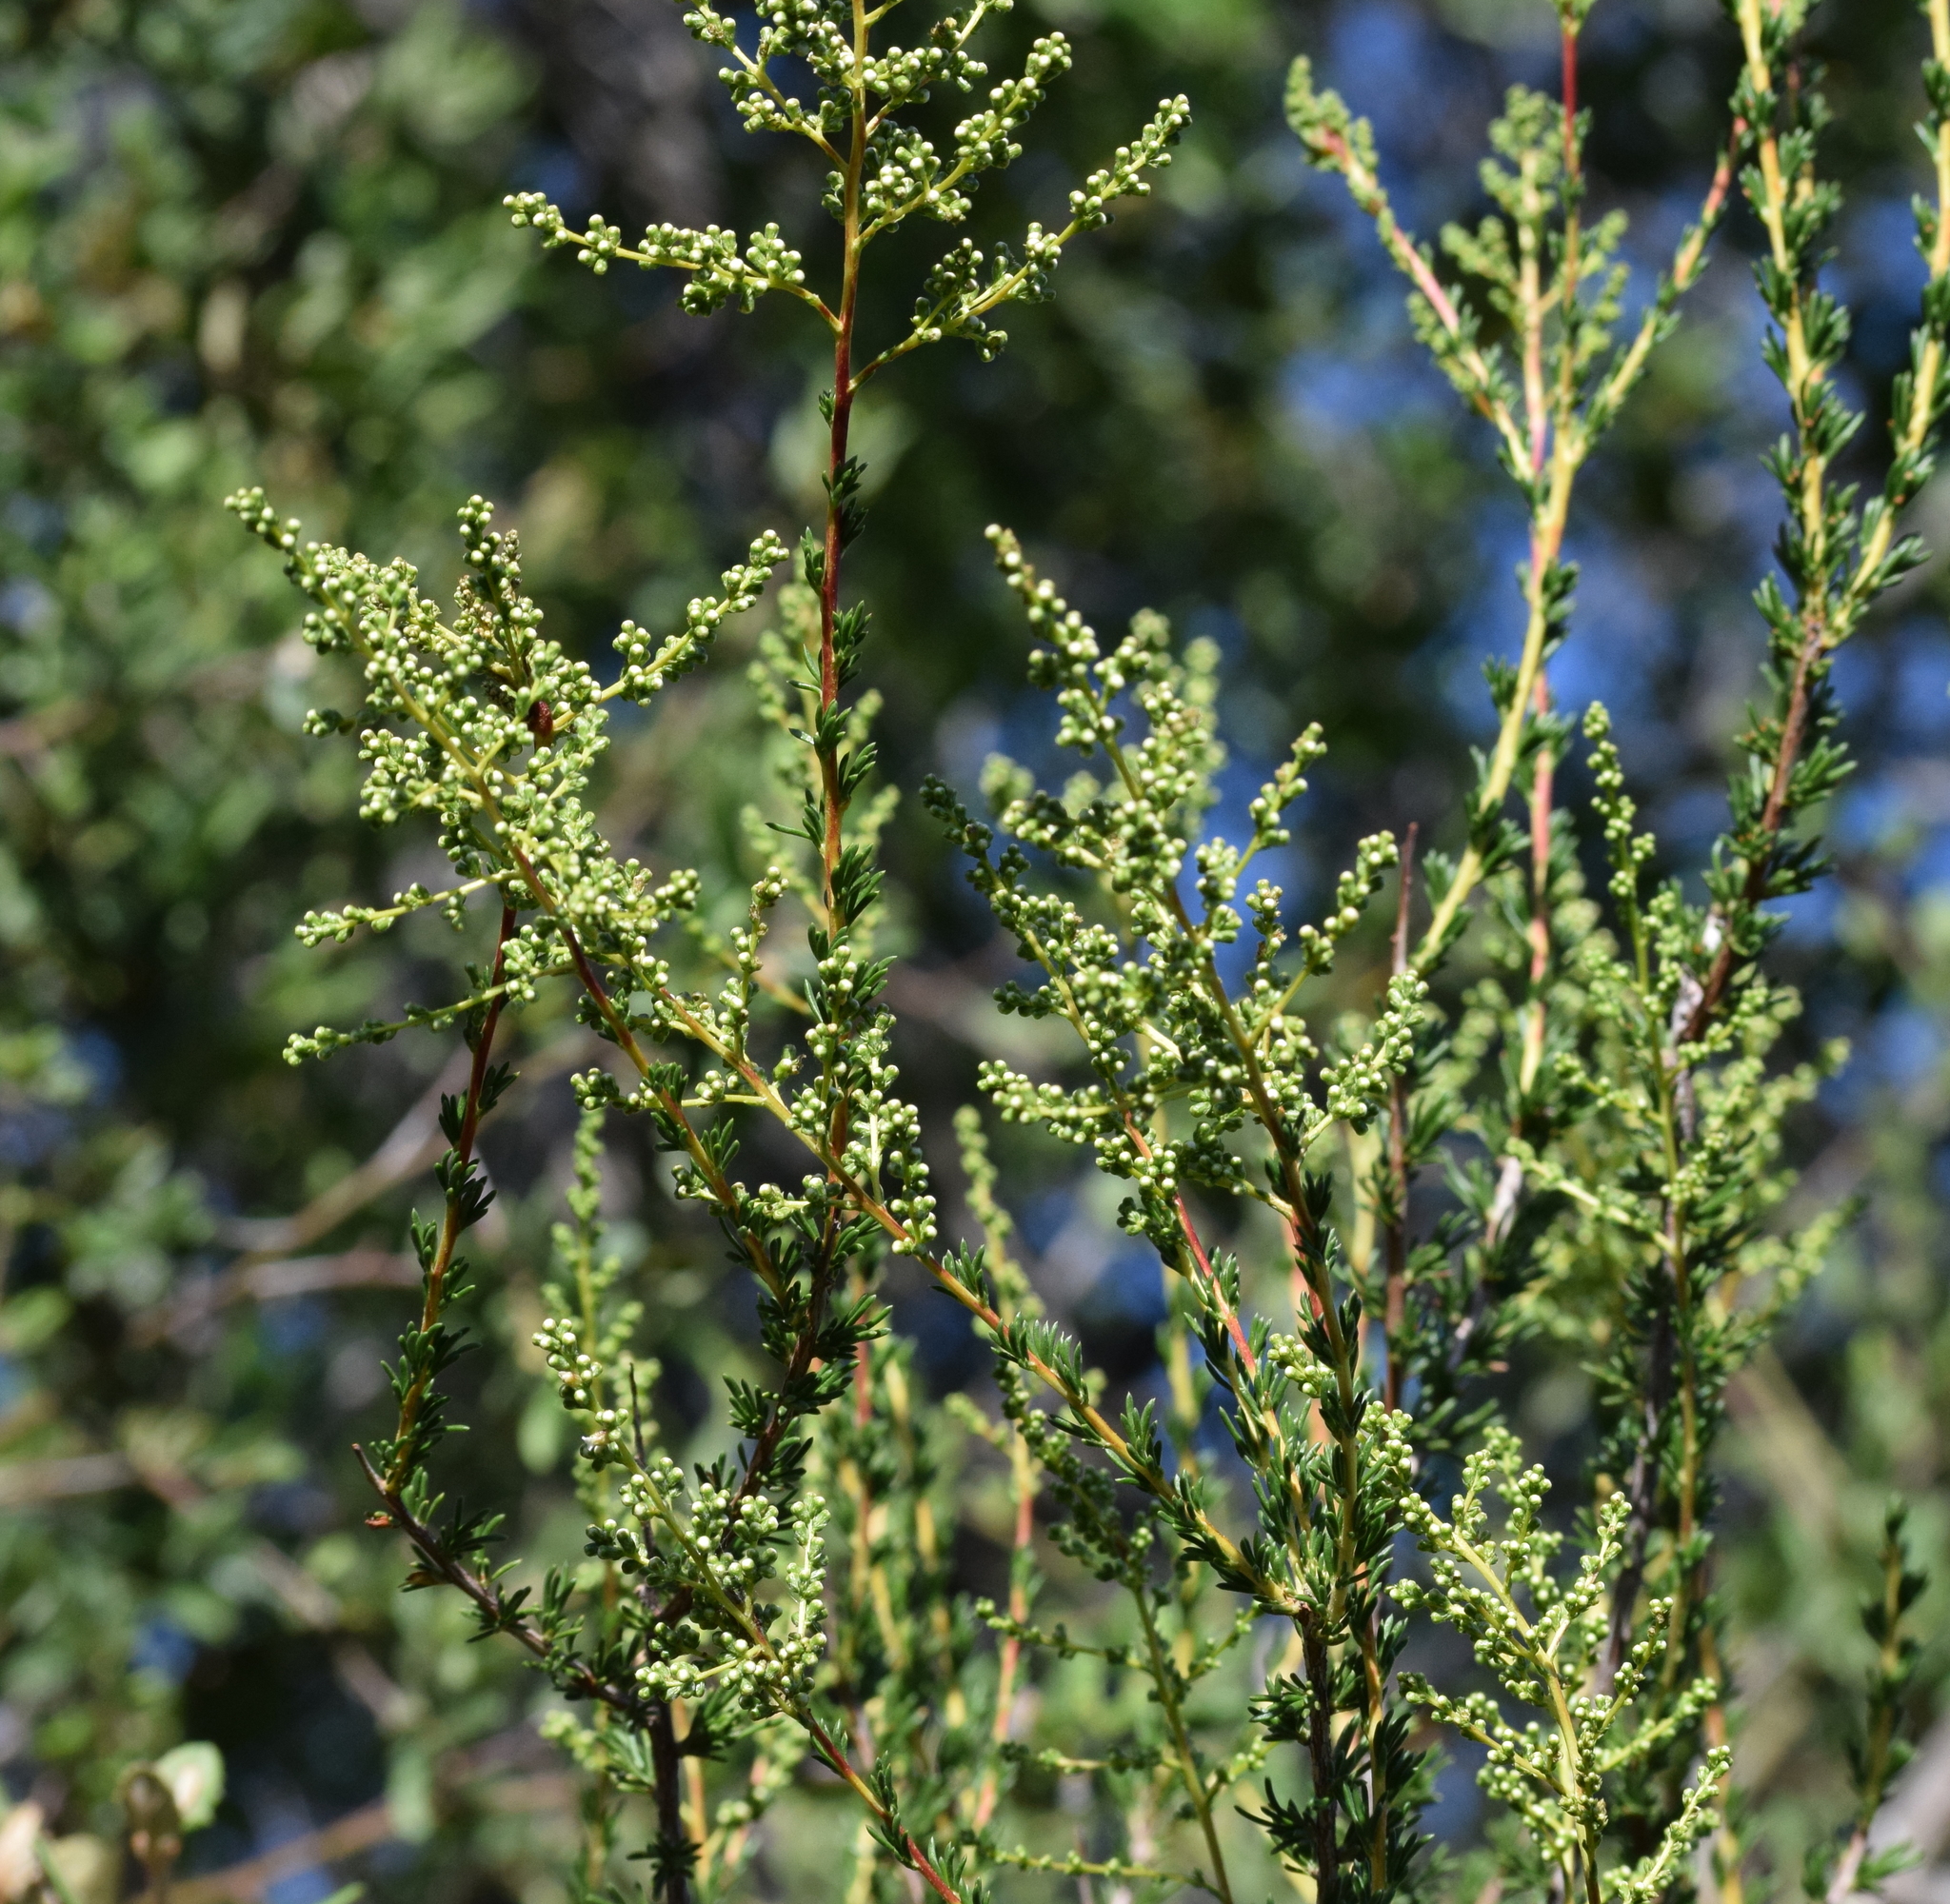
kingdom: Plantae
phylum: Tracheophyta
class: Magnoliopsida
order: Rosales
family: Rosaceae
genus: Adenostoma
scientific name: Adenostoma fasciculatum
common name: Chamise
